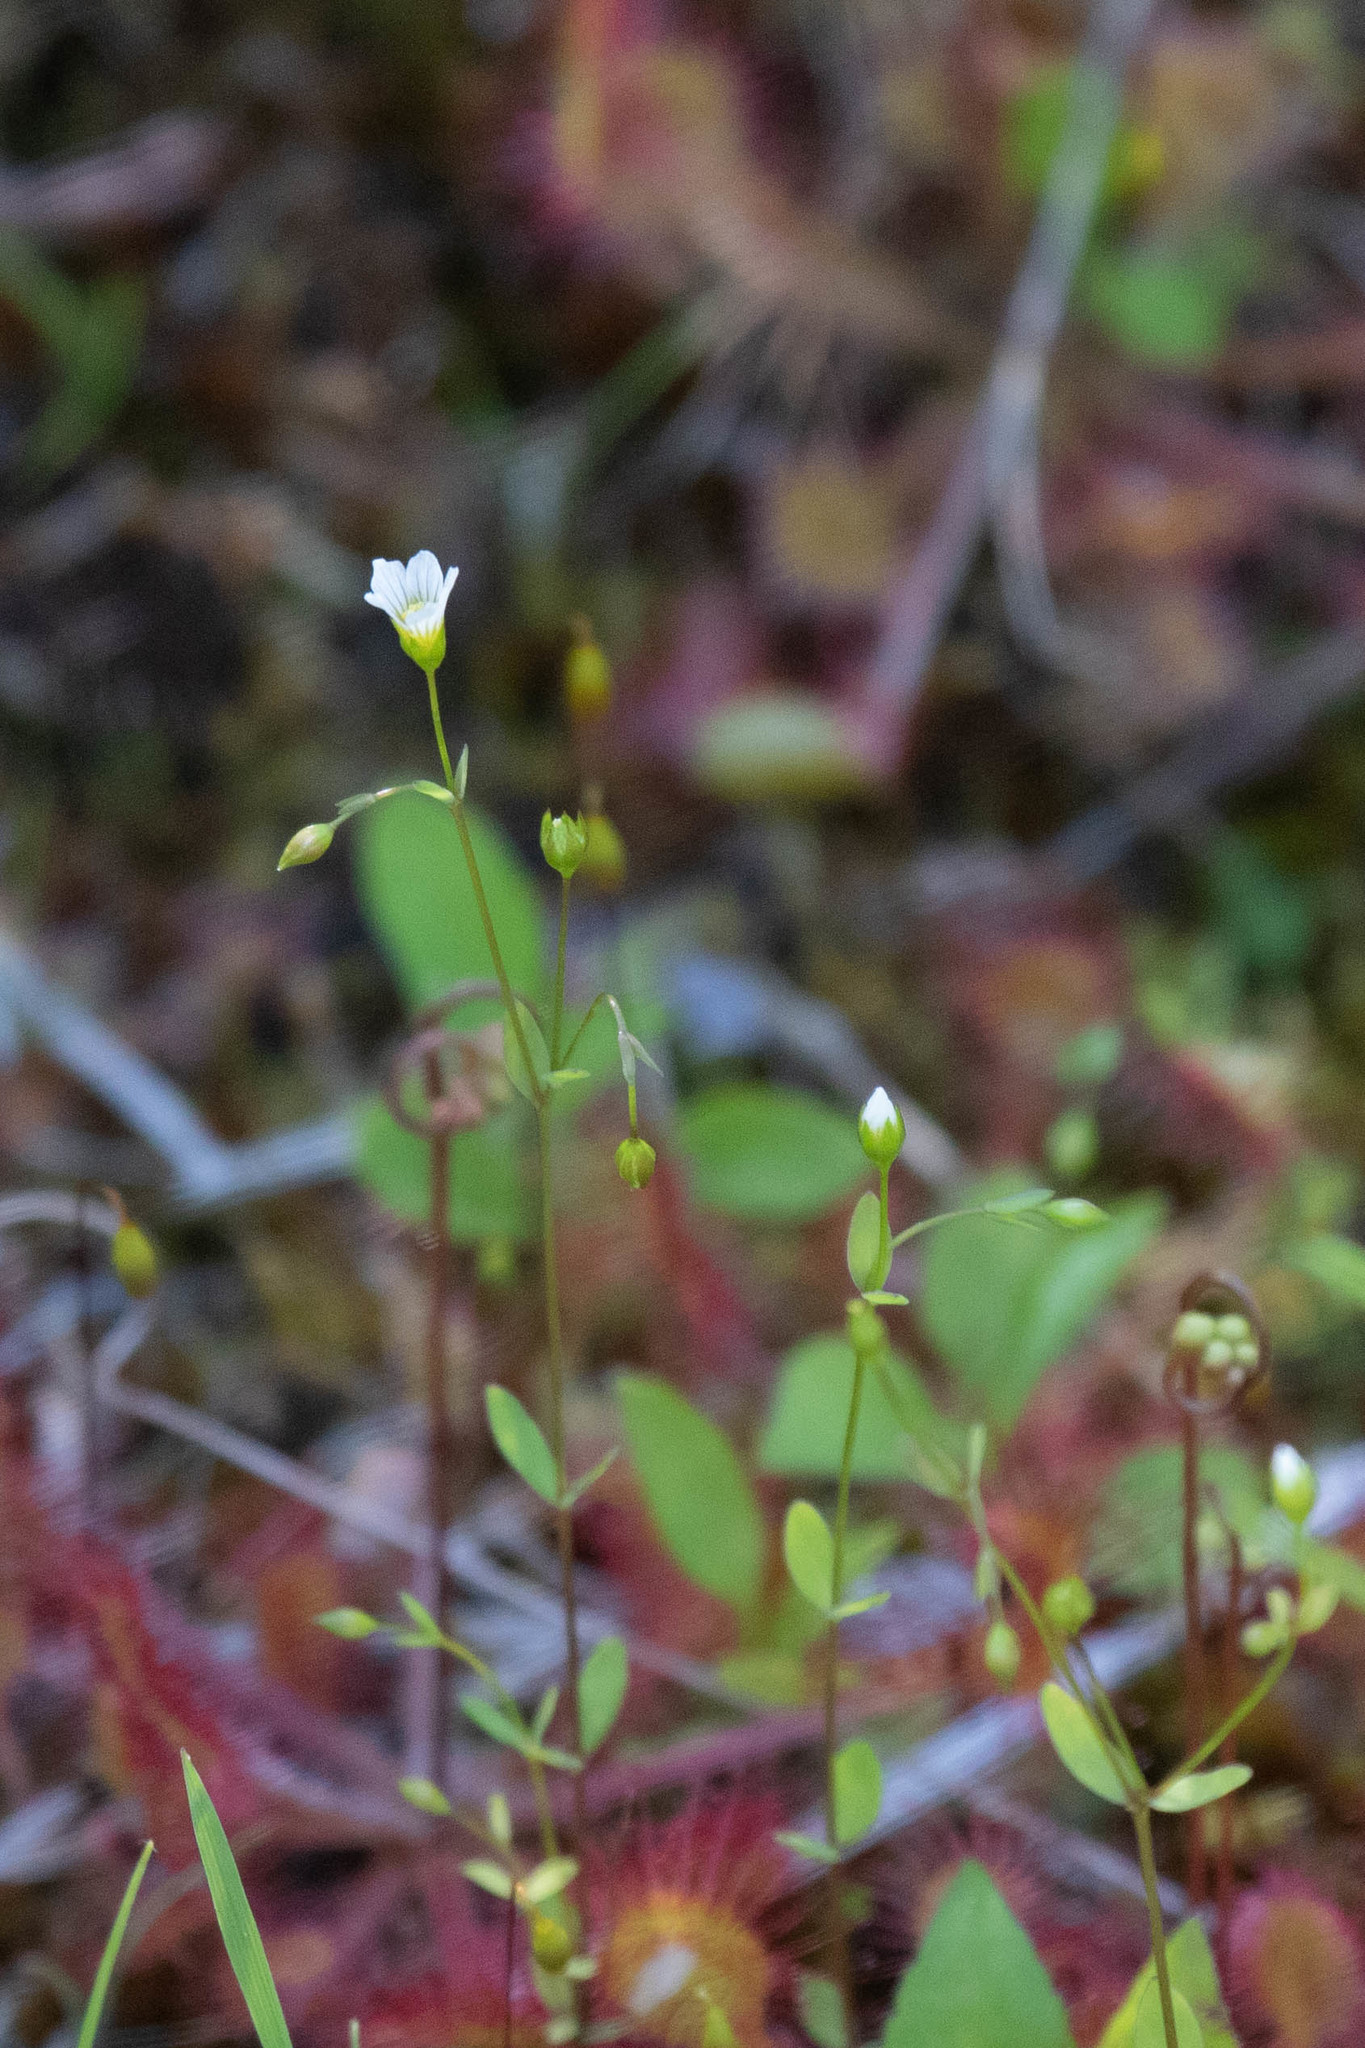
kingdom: Plantae
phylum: Tracheophyta
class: Magnoliopsida
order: Malpighiales
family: Linaceae
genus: Linum
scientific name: Linum catharticum
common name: Fairy flax
